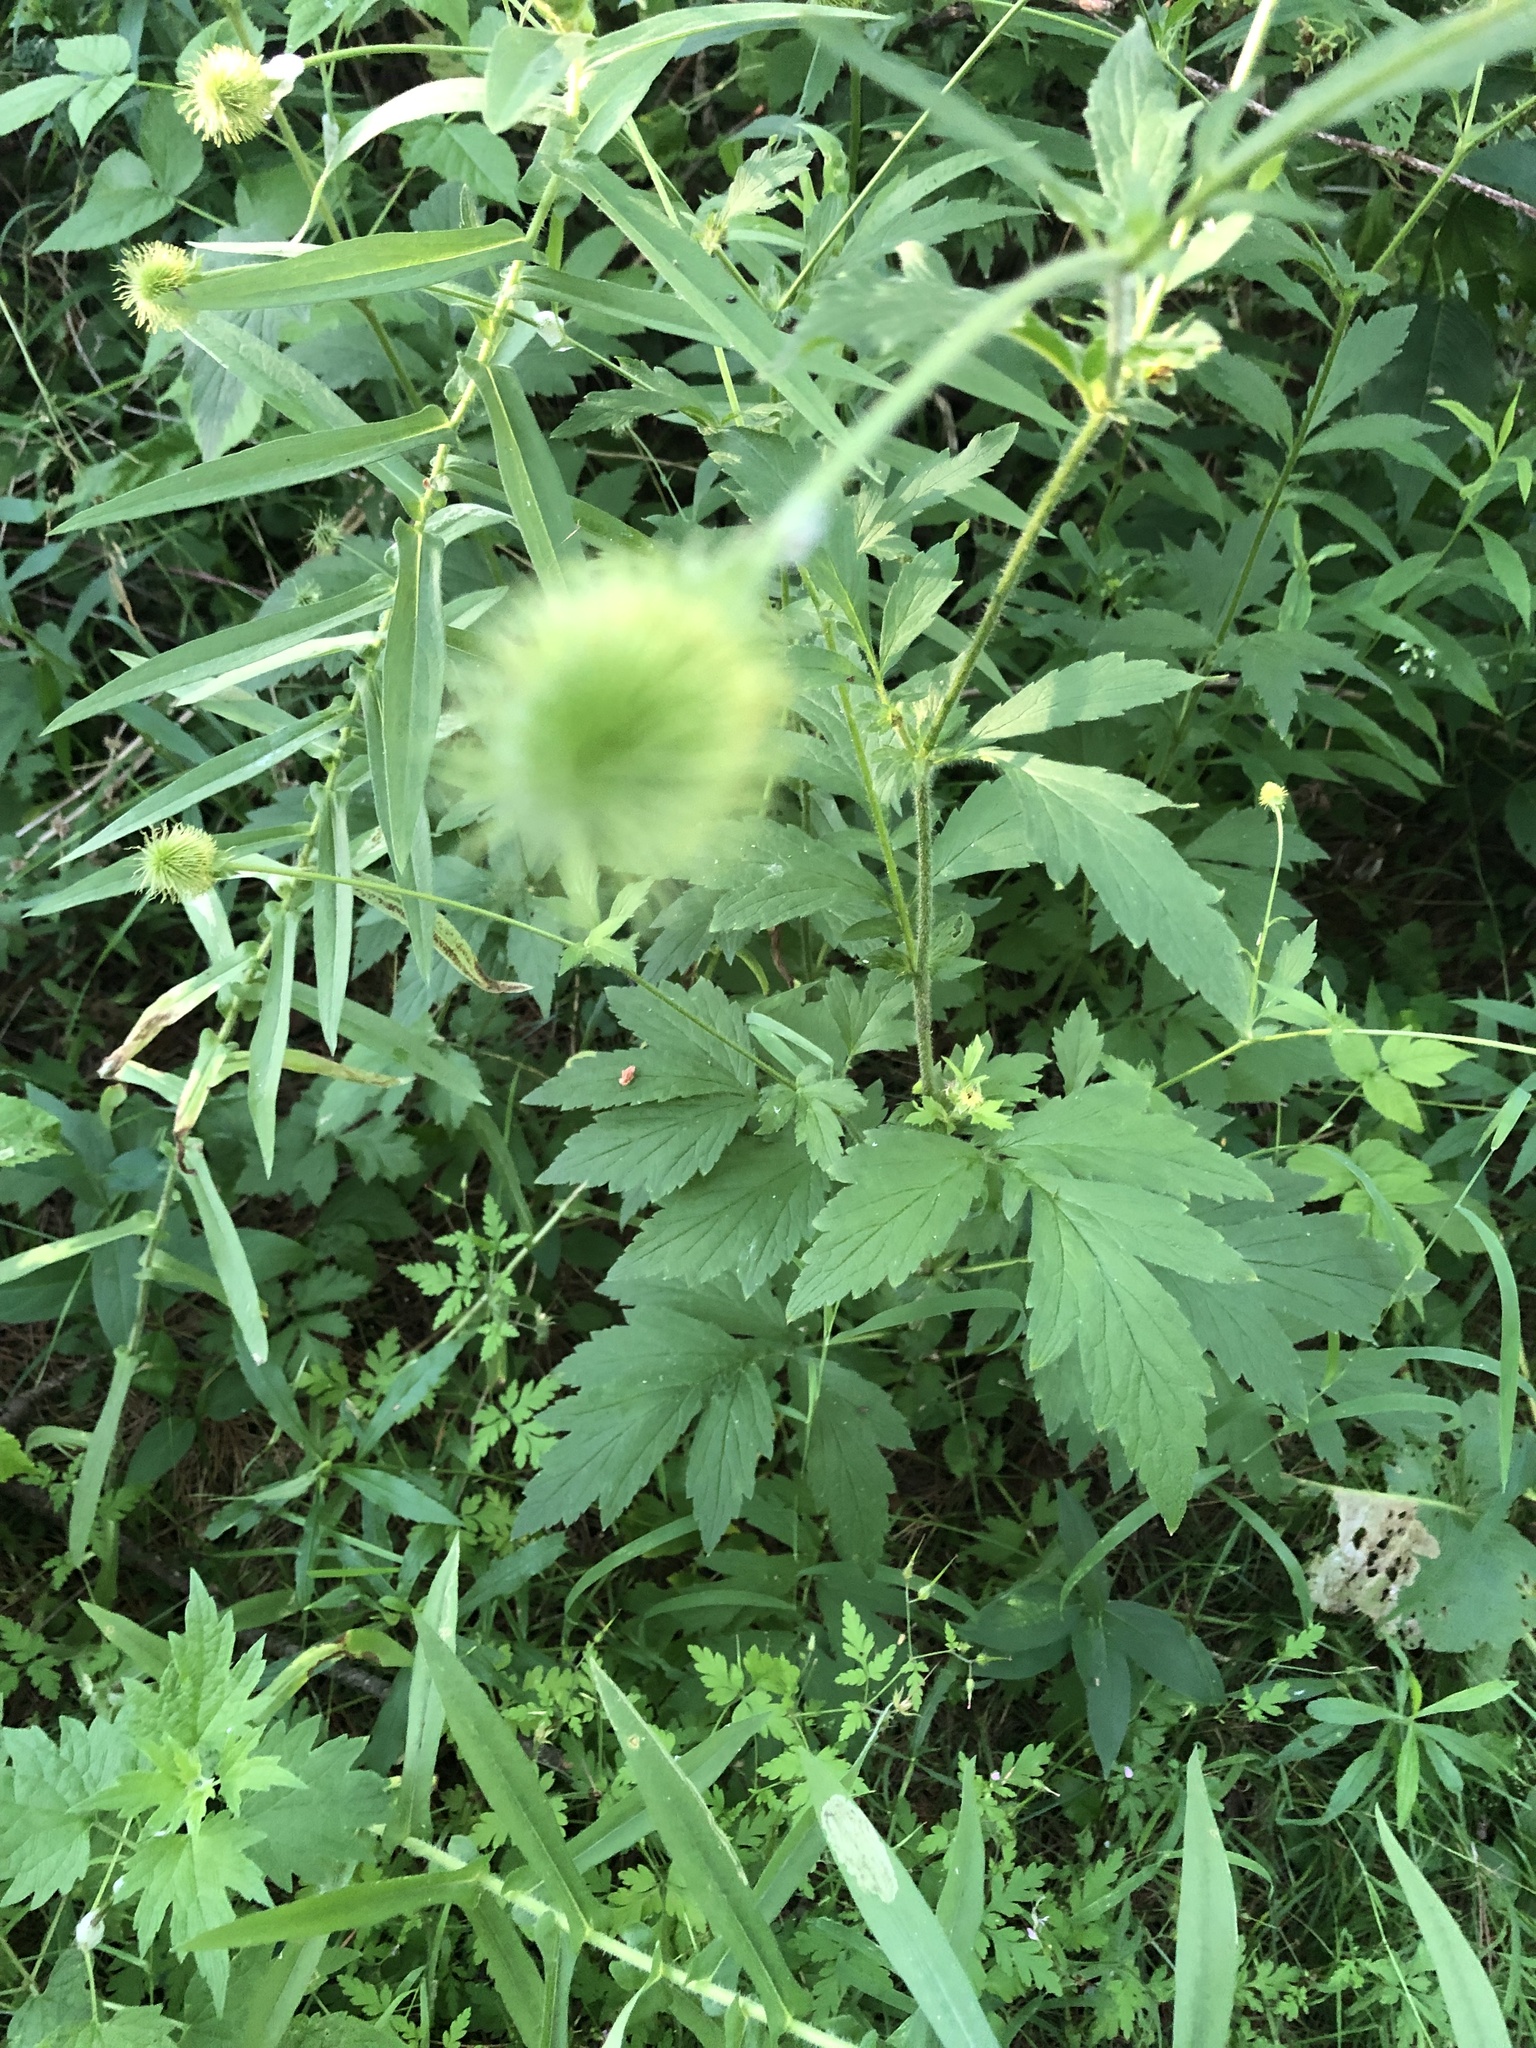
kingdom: Plantae
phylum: Tracheophyta
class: Magnoliopsida
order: Rosales
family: Rosaceae
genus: Geum
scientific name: Geum aleppicum
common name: Yellow avens
